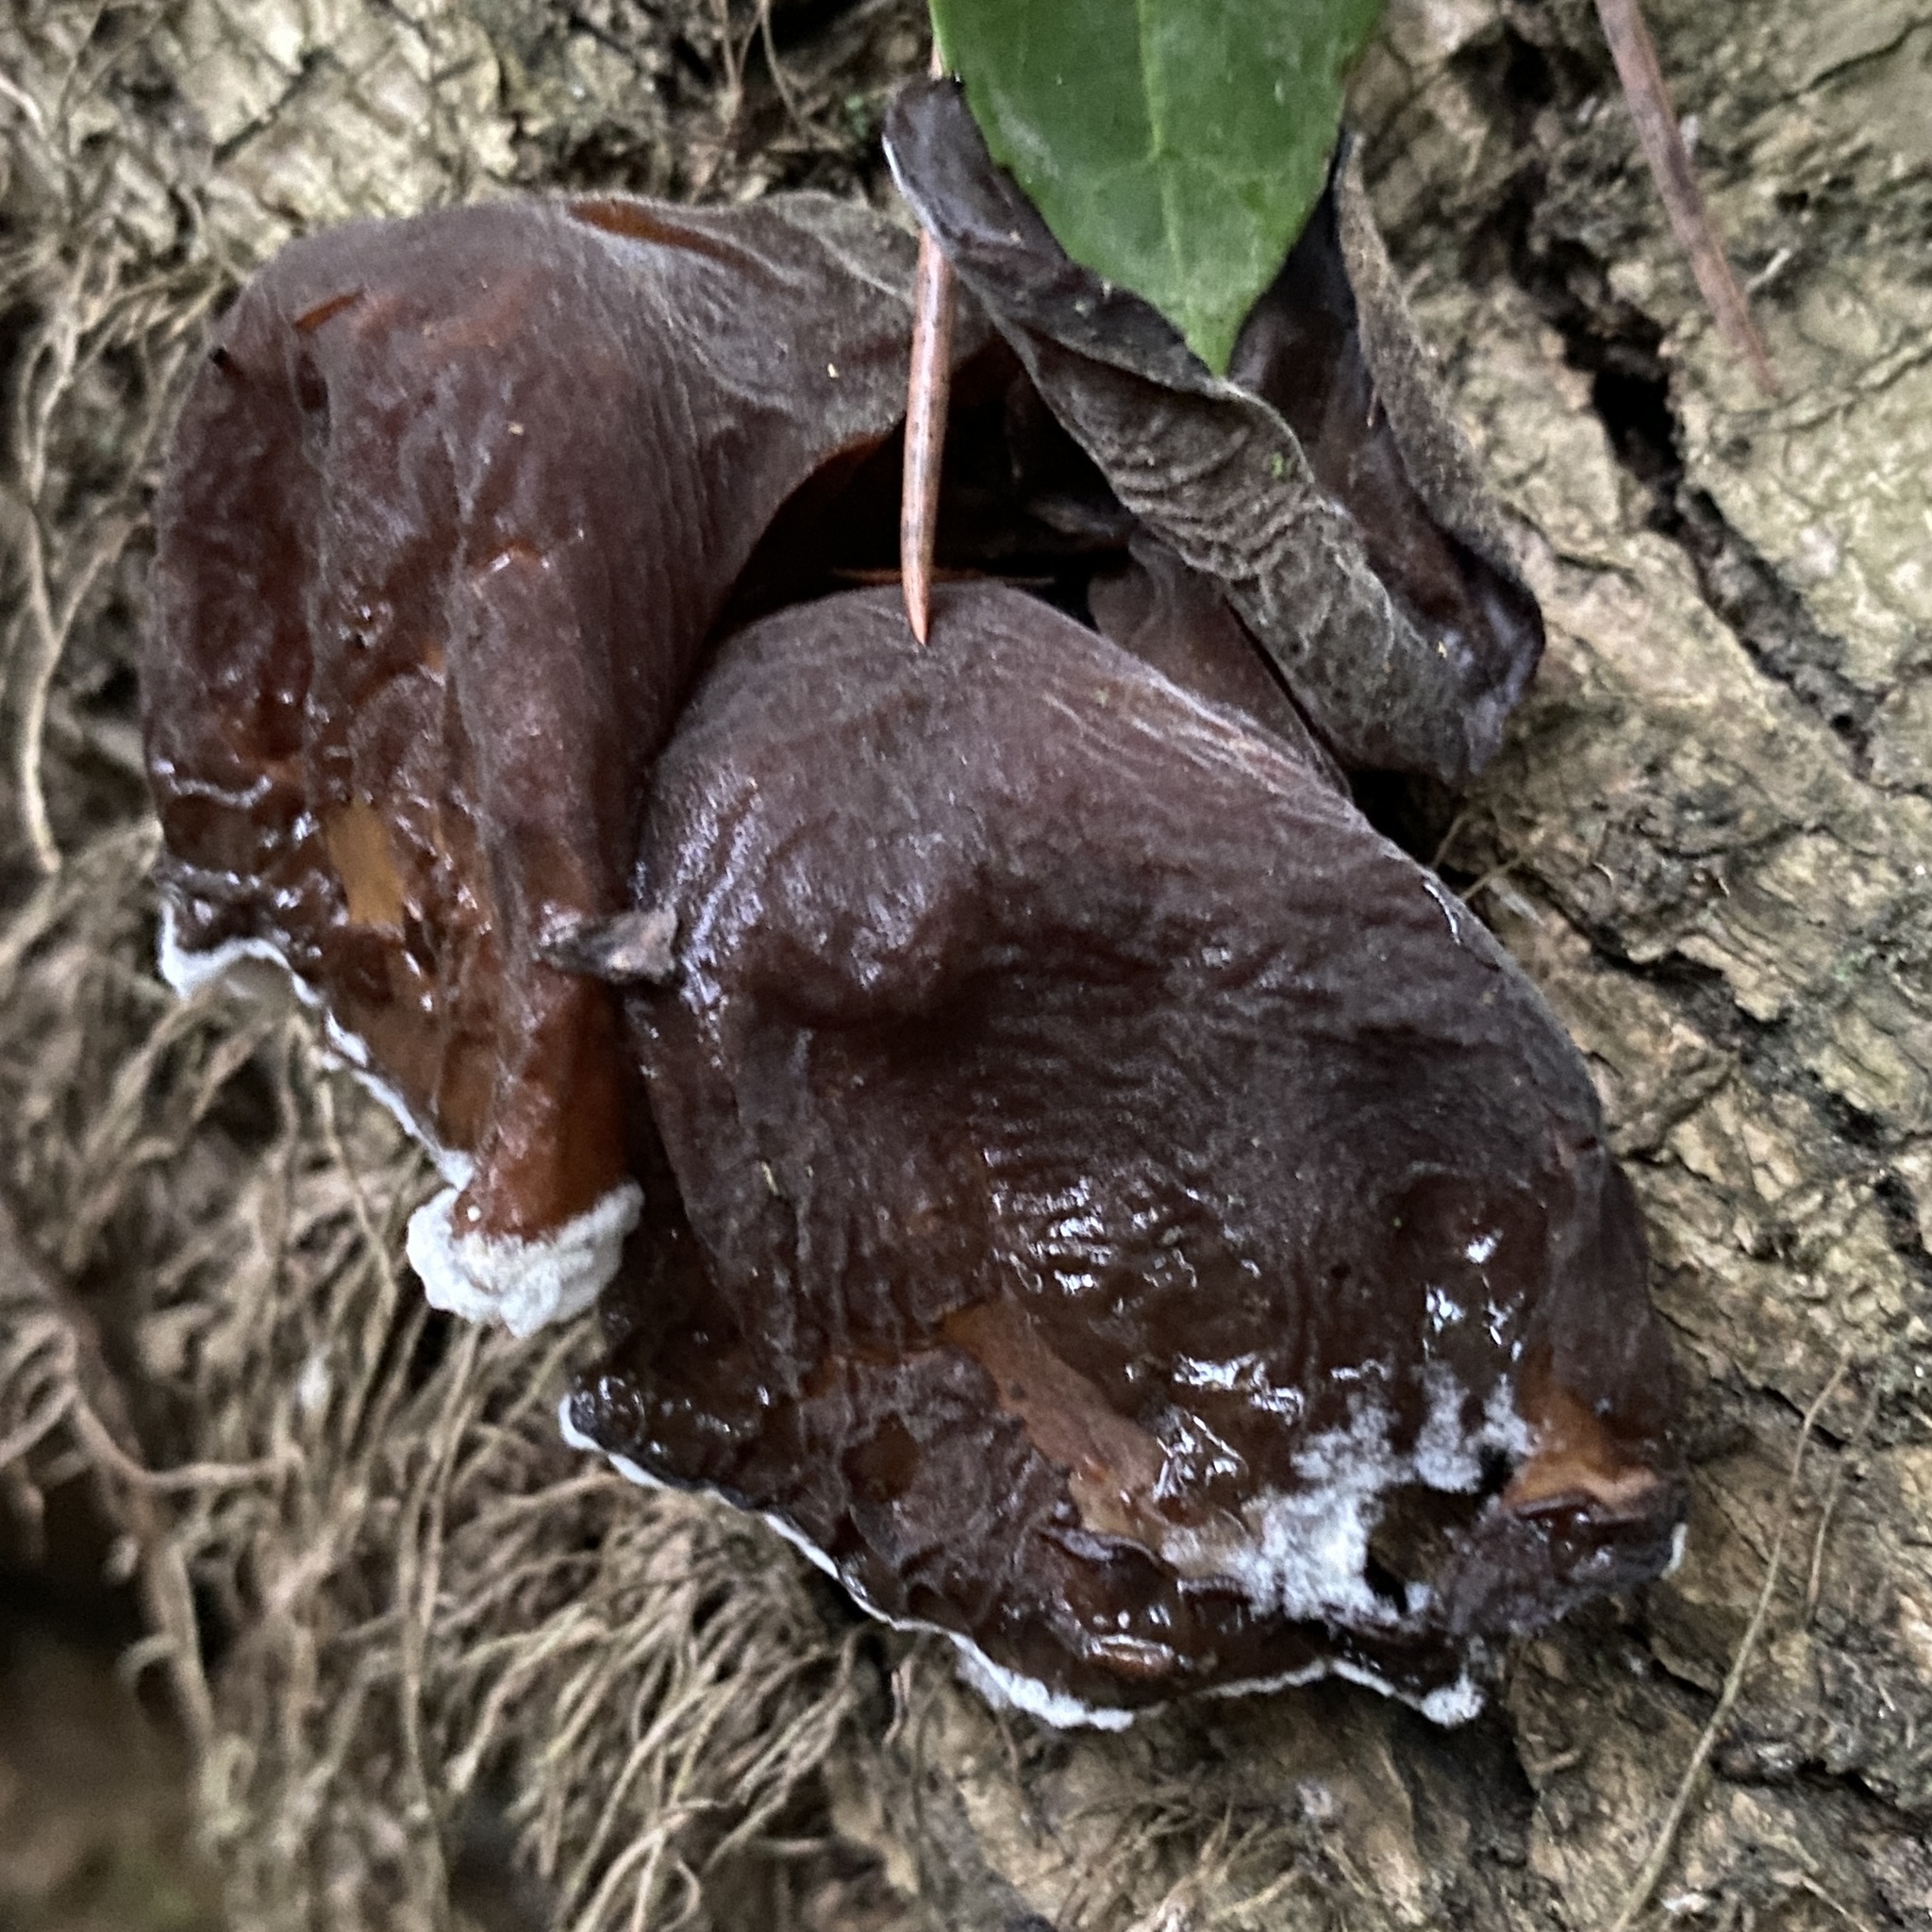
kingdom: Fungi
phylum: Basidiomycota
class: Agaricomycetes
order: Auriculariales
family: Auriculariaceae
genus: Auricularia
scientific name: Auricularia auricula-judae
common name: Jelly ear
